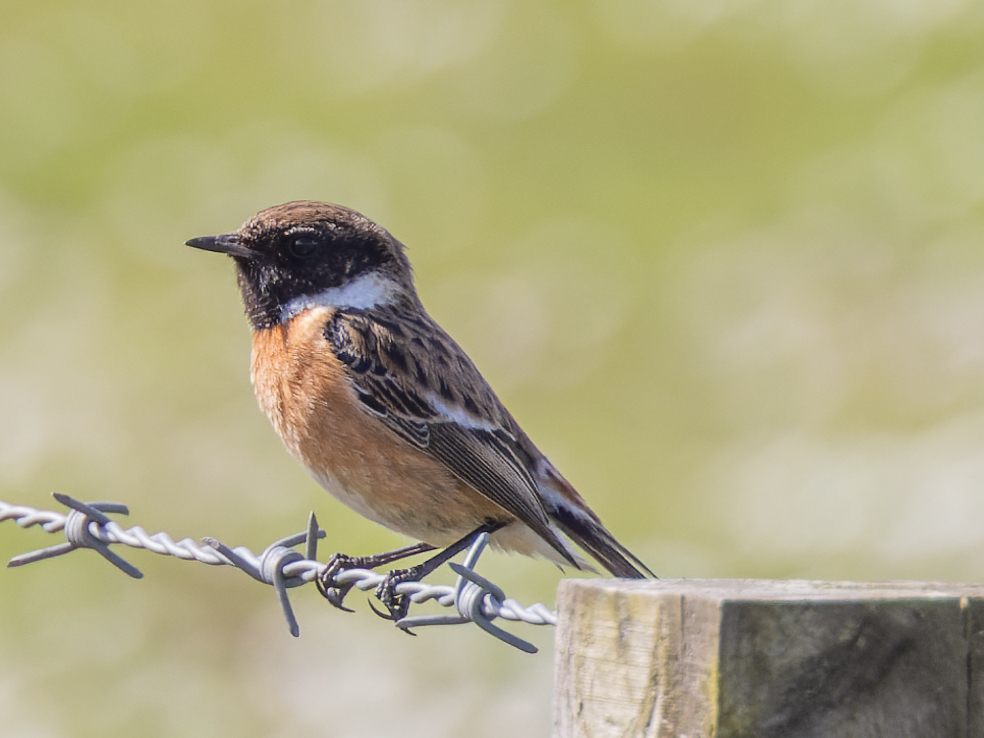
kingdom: Animalia
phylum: Chordata
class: Aves
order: Passeriformes
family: Muscicapidae
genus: Saxicola
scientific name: Saxicola rubicola
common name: European stonechat
